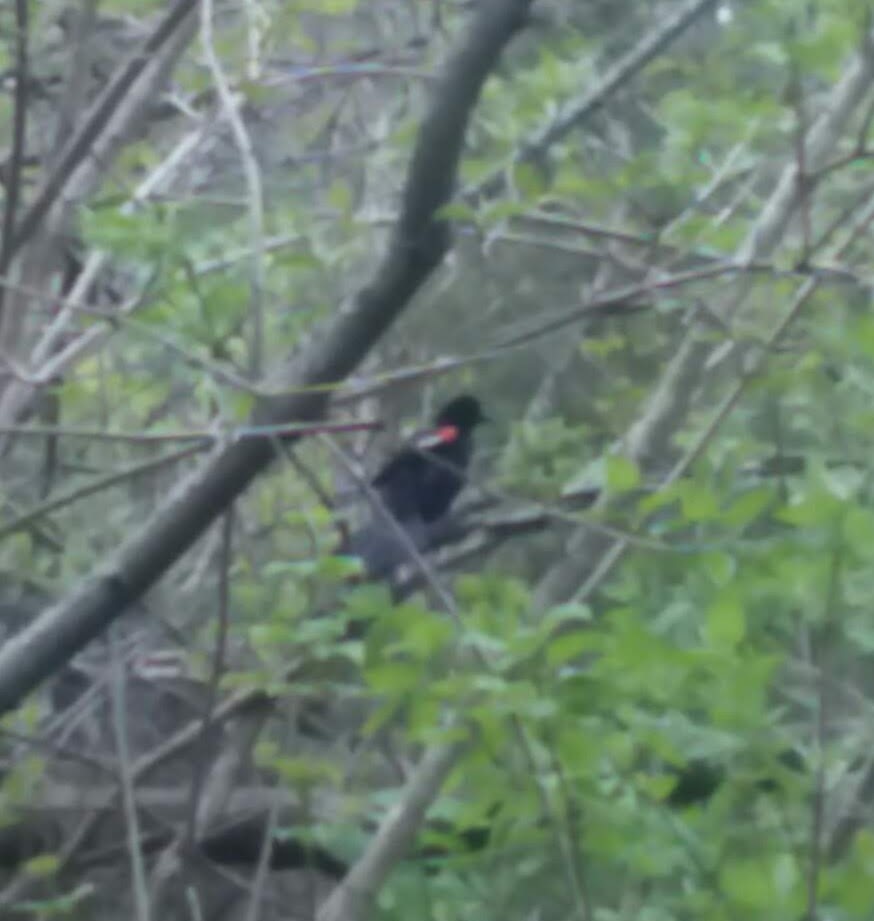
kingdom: Animalia
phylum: Chordata
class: Aves
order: Passeriformes
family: Icteridae
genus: Agelaius
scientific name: Agelaius phoeniceus
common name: Red-winged blackbird
